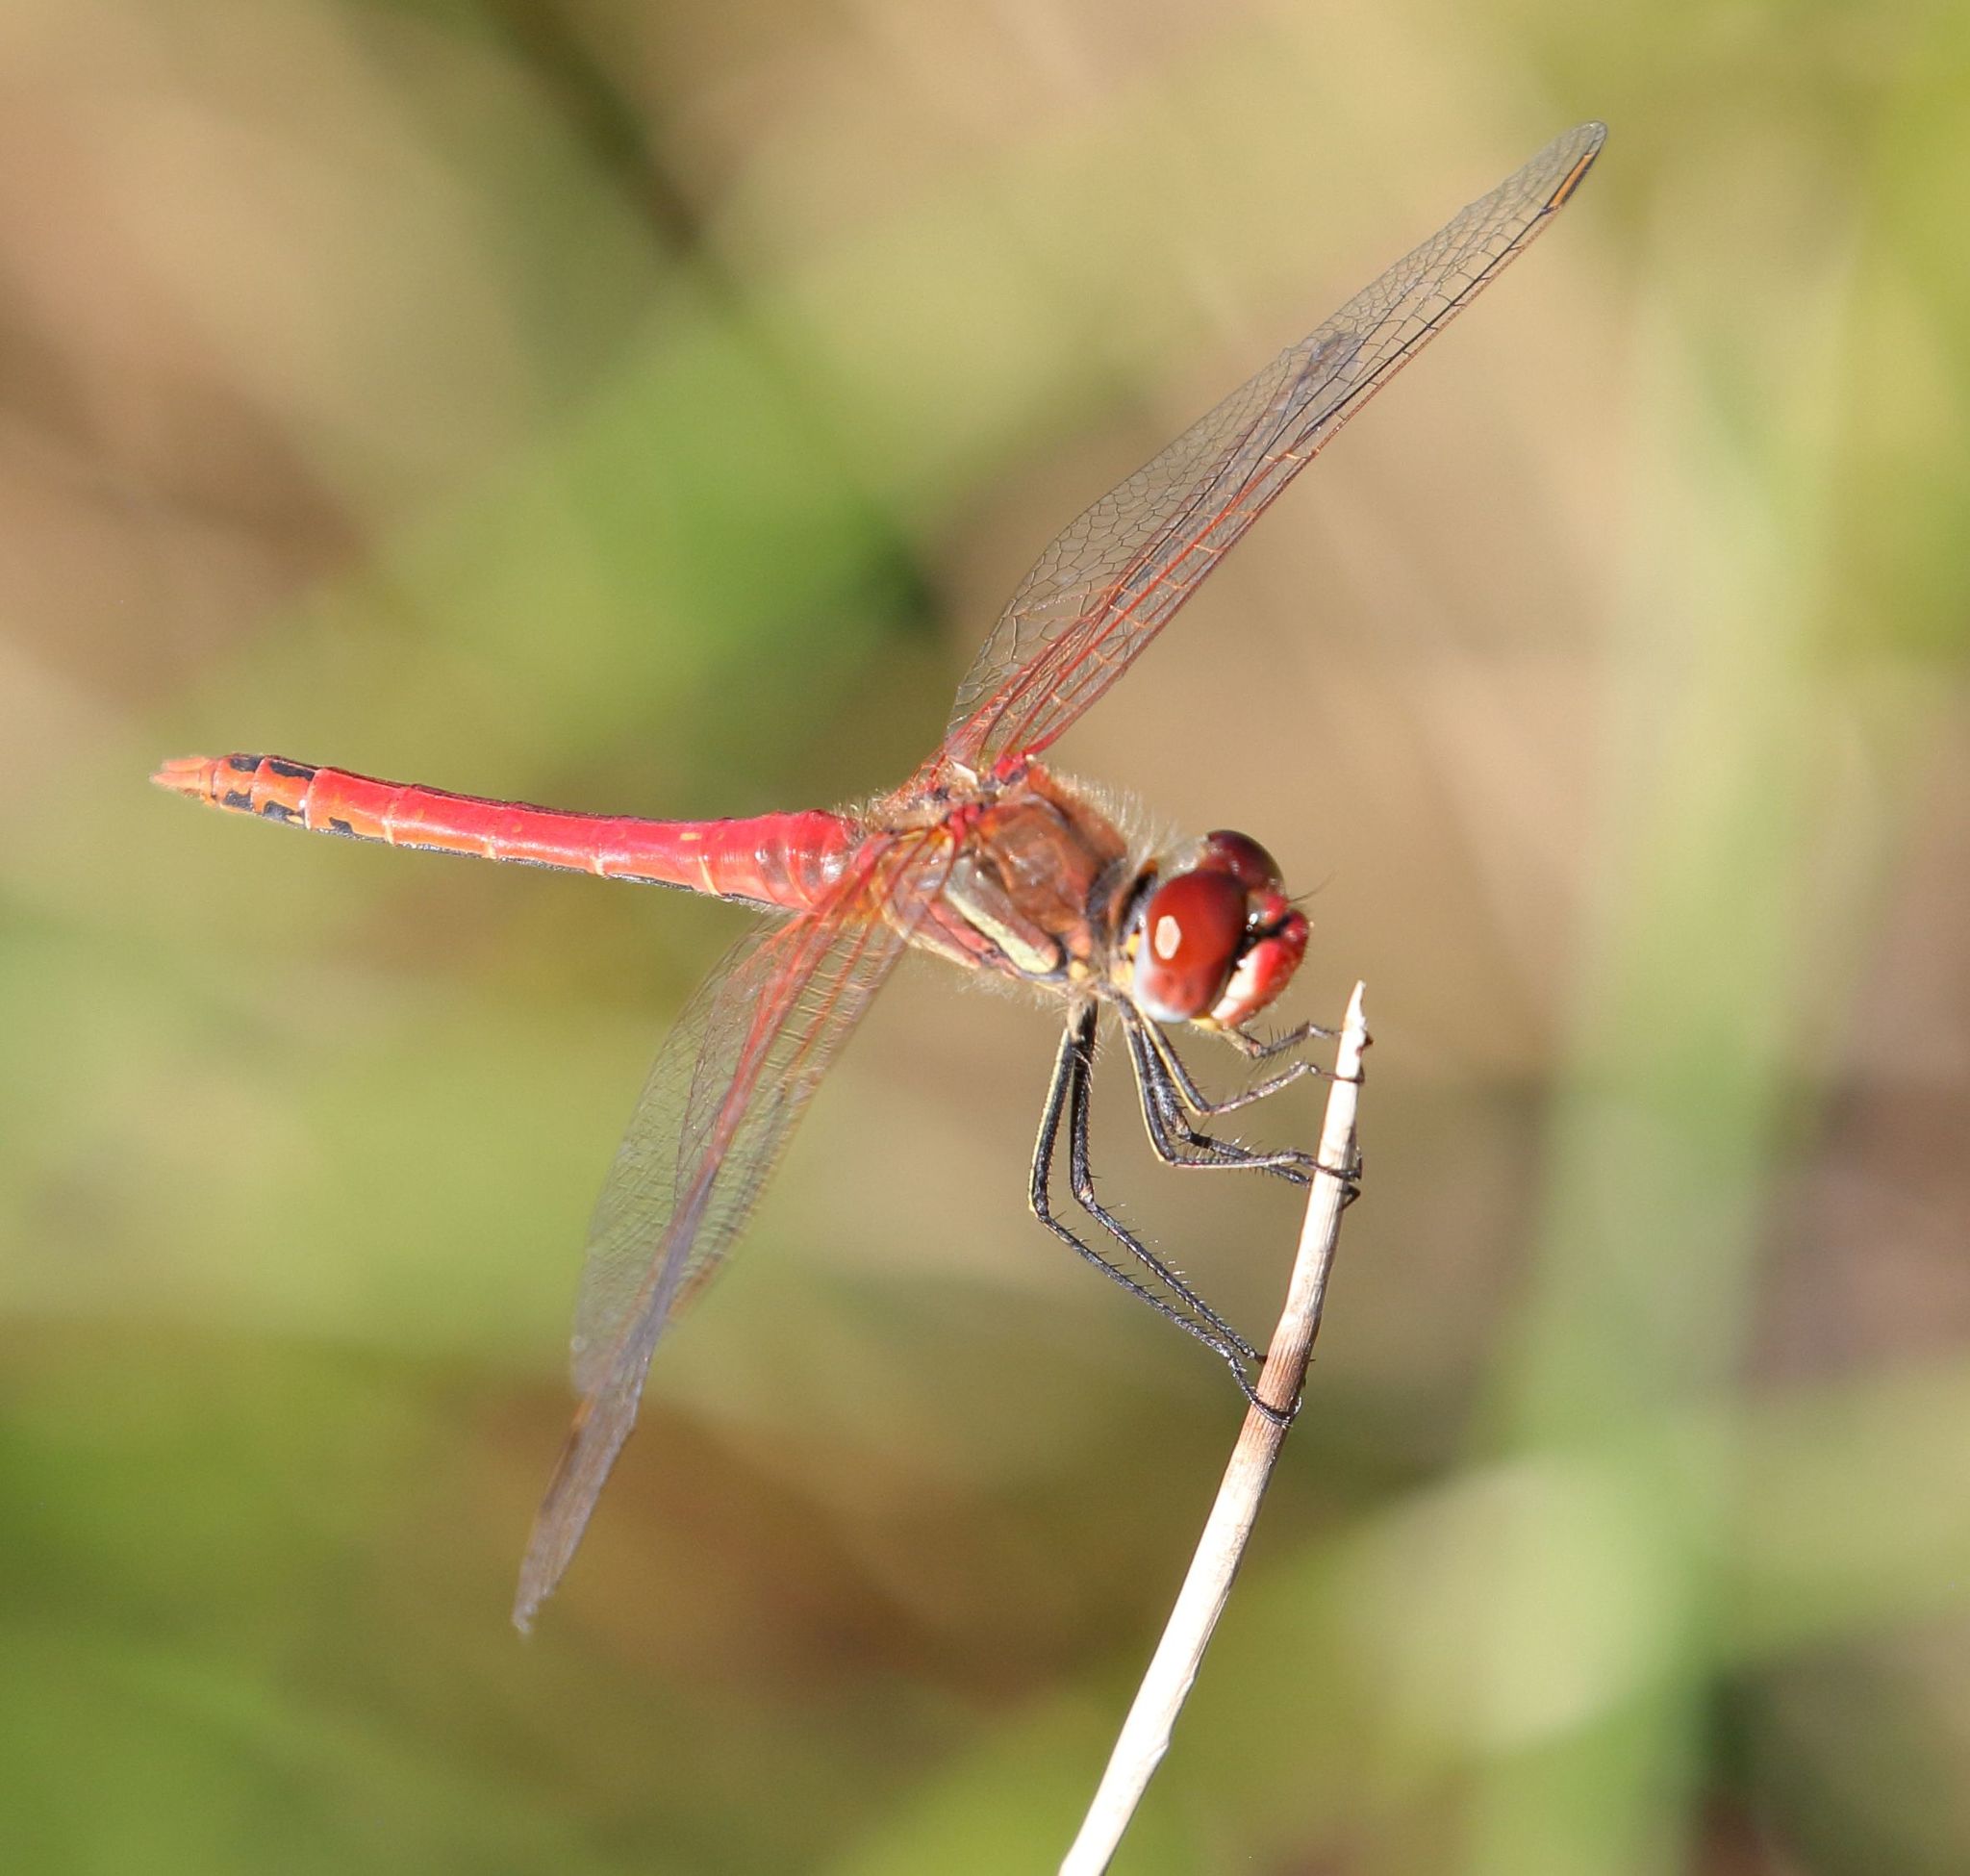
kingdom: Animalia
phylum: Arthropoda
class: Insecta
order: Odonata
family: Libellulidae
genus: Sympetrum
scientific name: Sympetrum fonscolombii
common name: Red-veined darter
